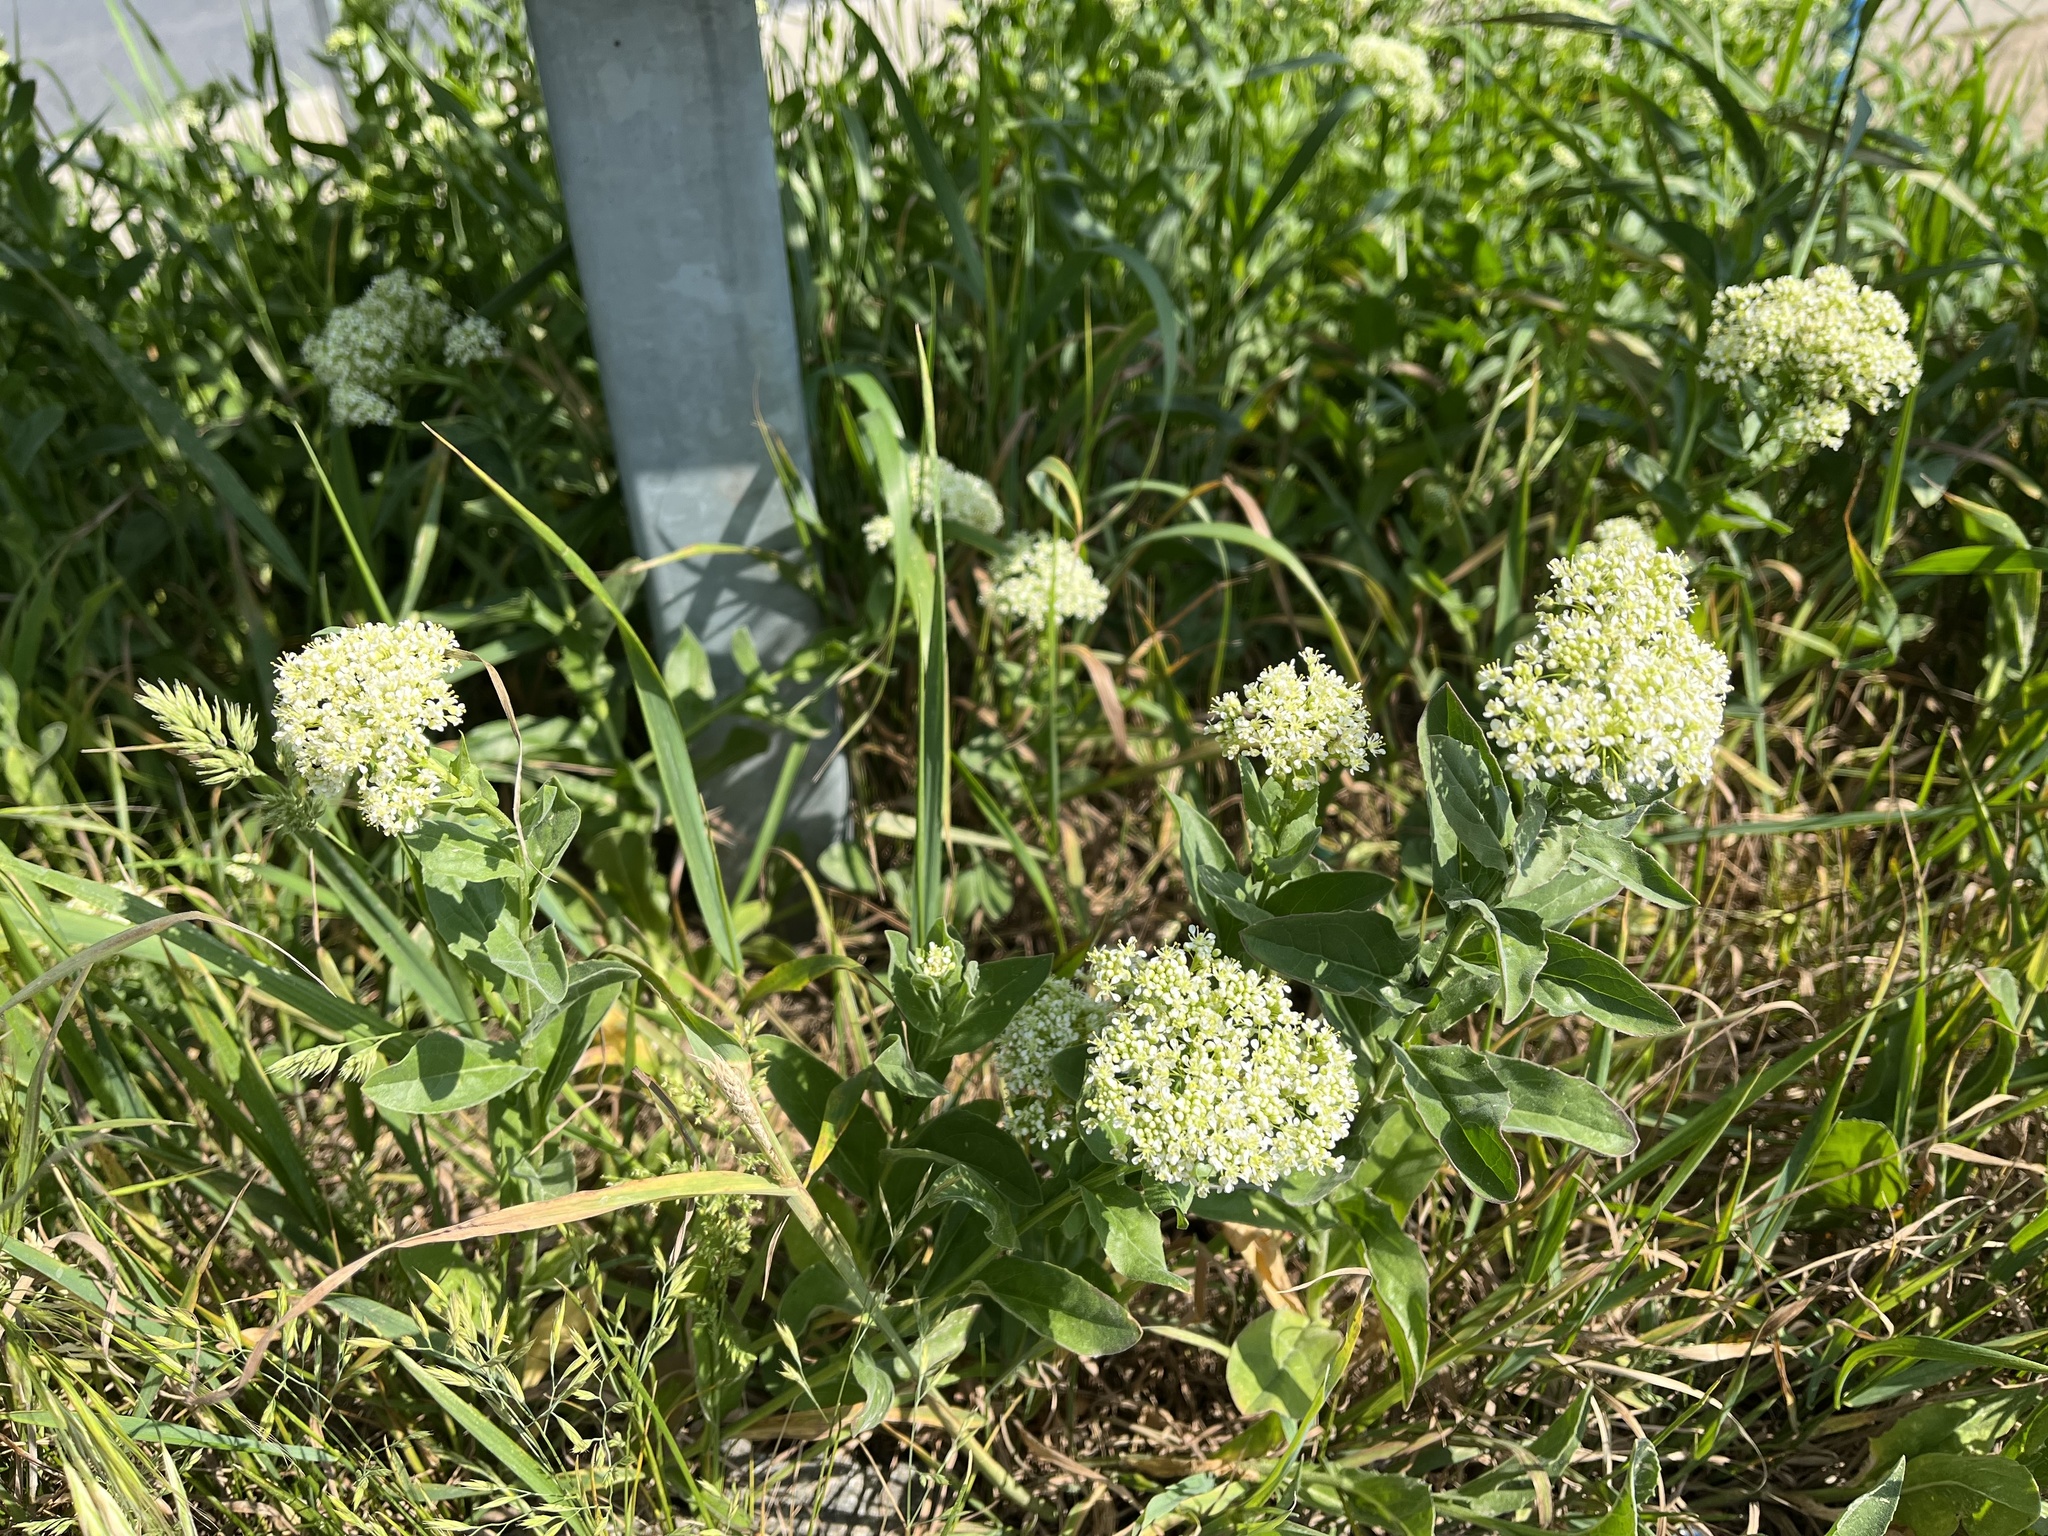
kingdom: Plantae
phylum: Tracheophyta
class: Magnoliopsida
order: Brassicales
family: Brassicaceae
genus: Lepidium
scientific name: Lepidium draba
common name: Hoary cress
